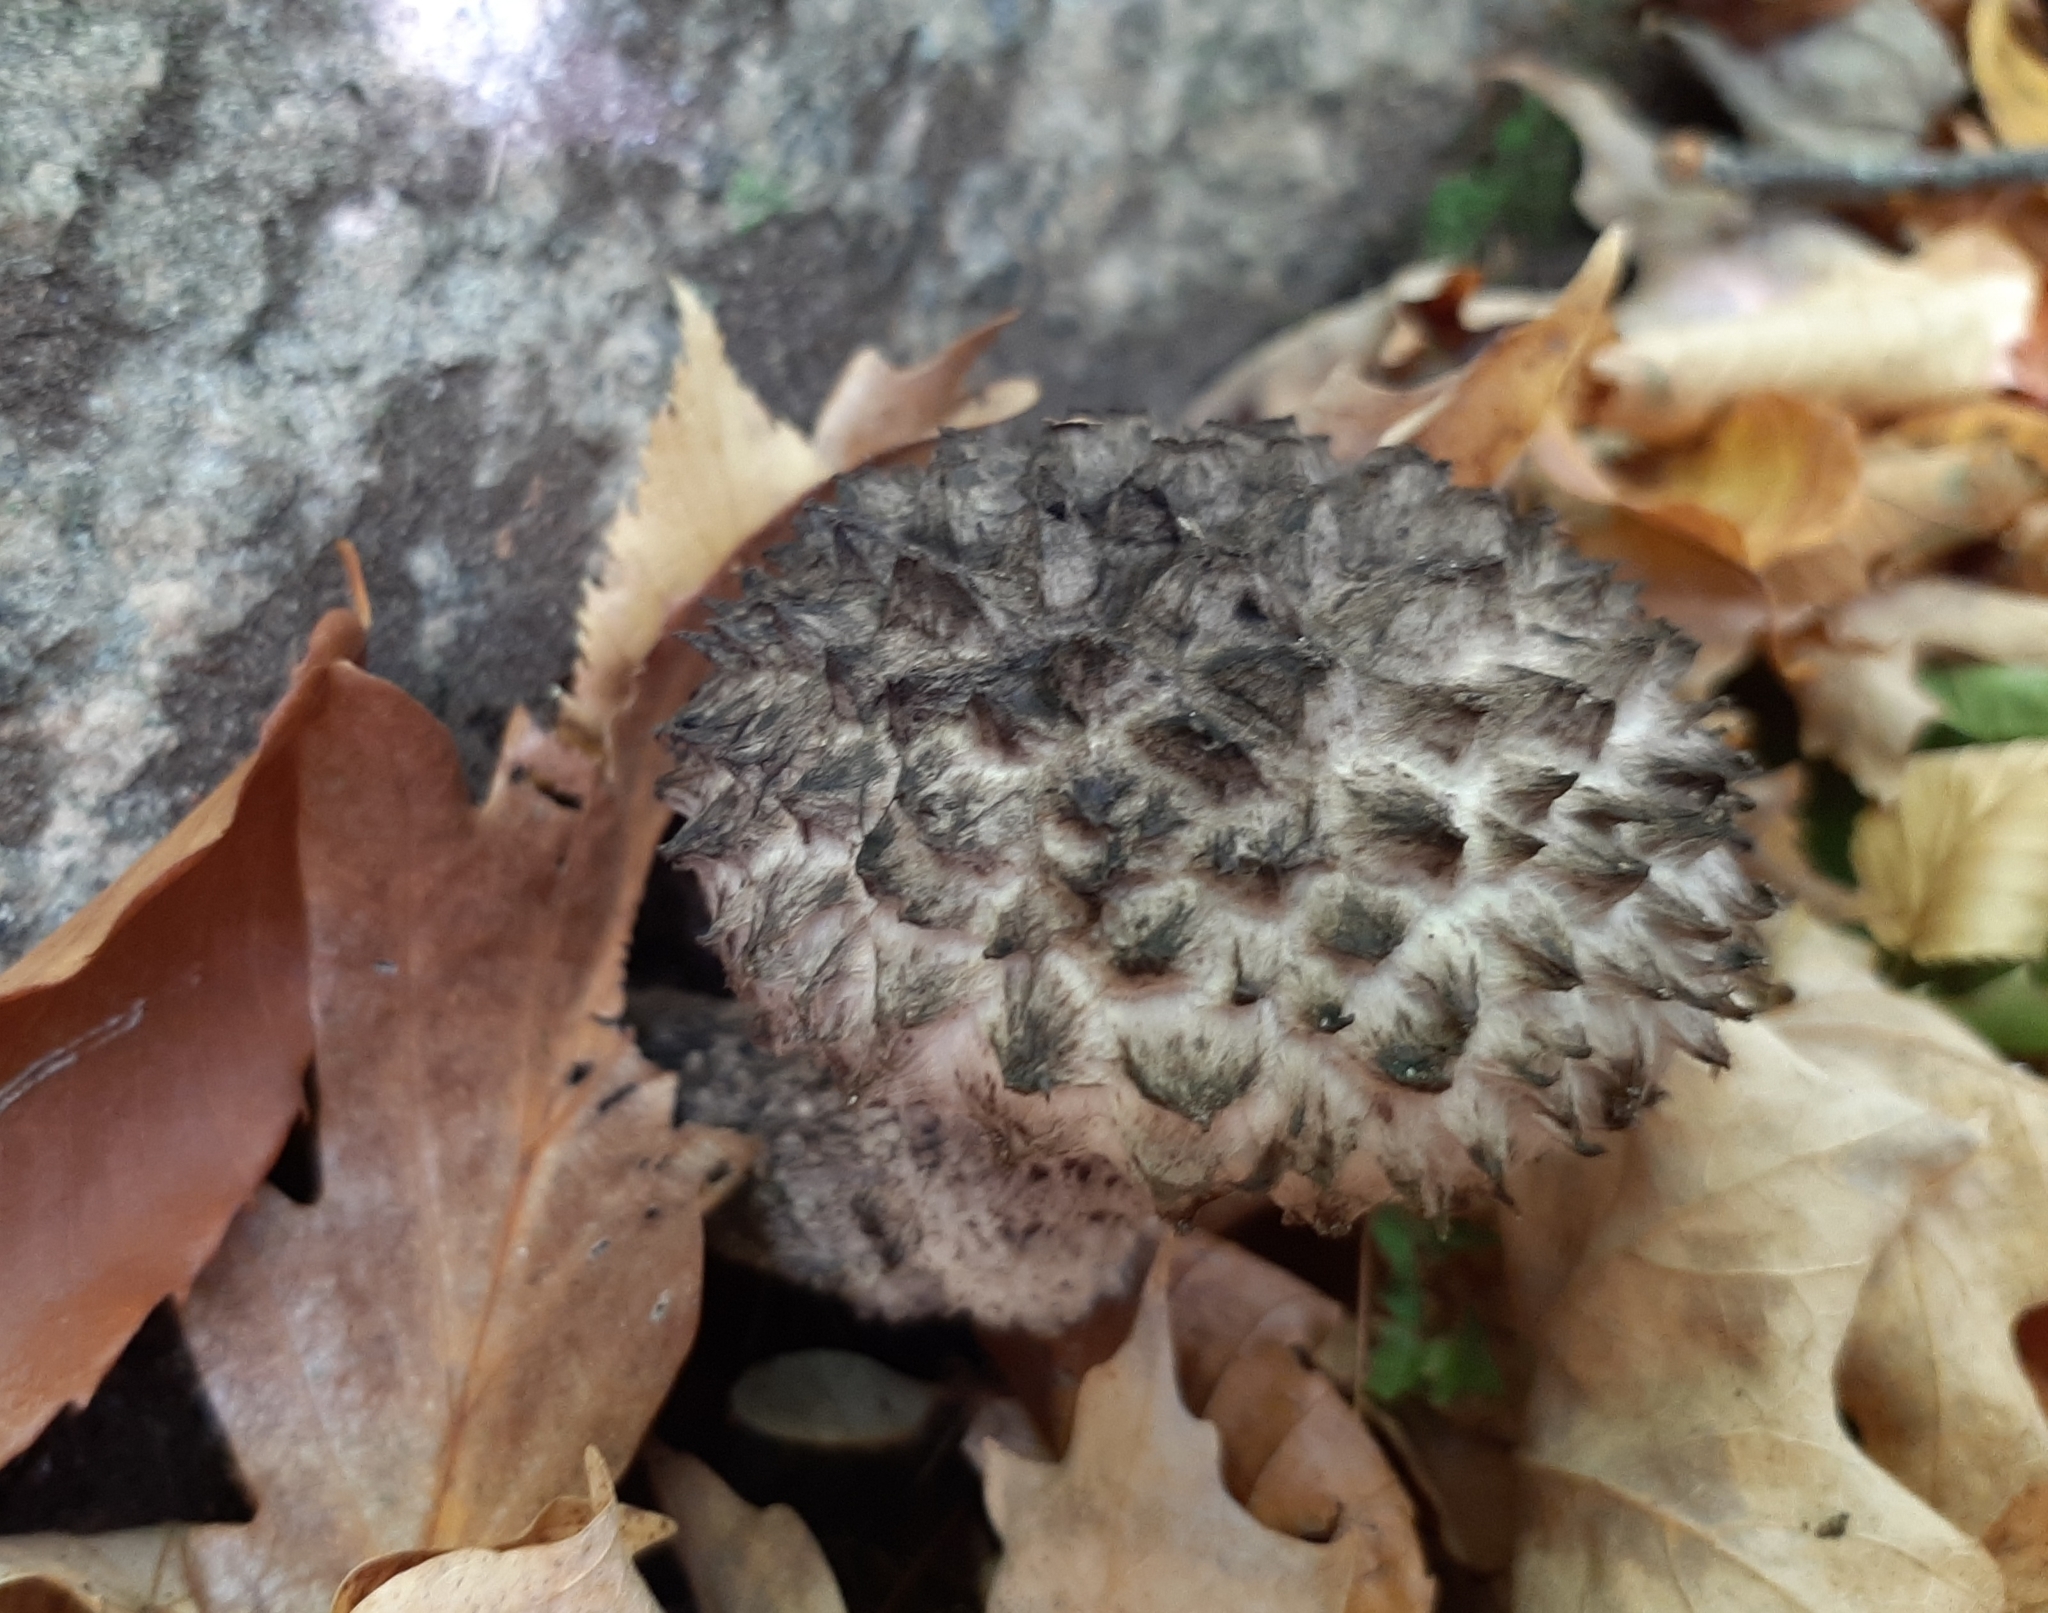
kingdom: Fungi
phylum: Basidiomycota
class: Agaricomycetes
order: Boletales
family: Boletaceae
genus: Strobilomyces
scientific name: Strobilomyces strobilaceus
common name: Old man of the woods
